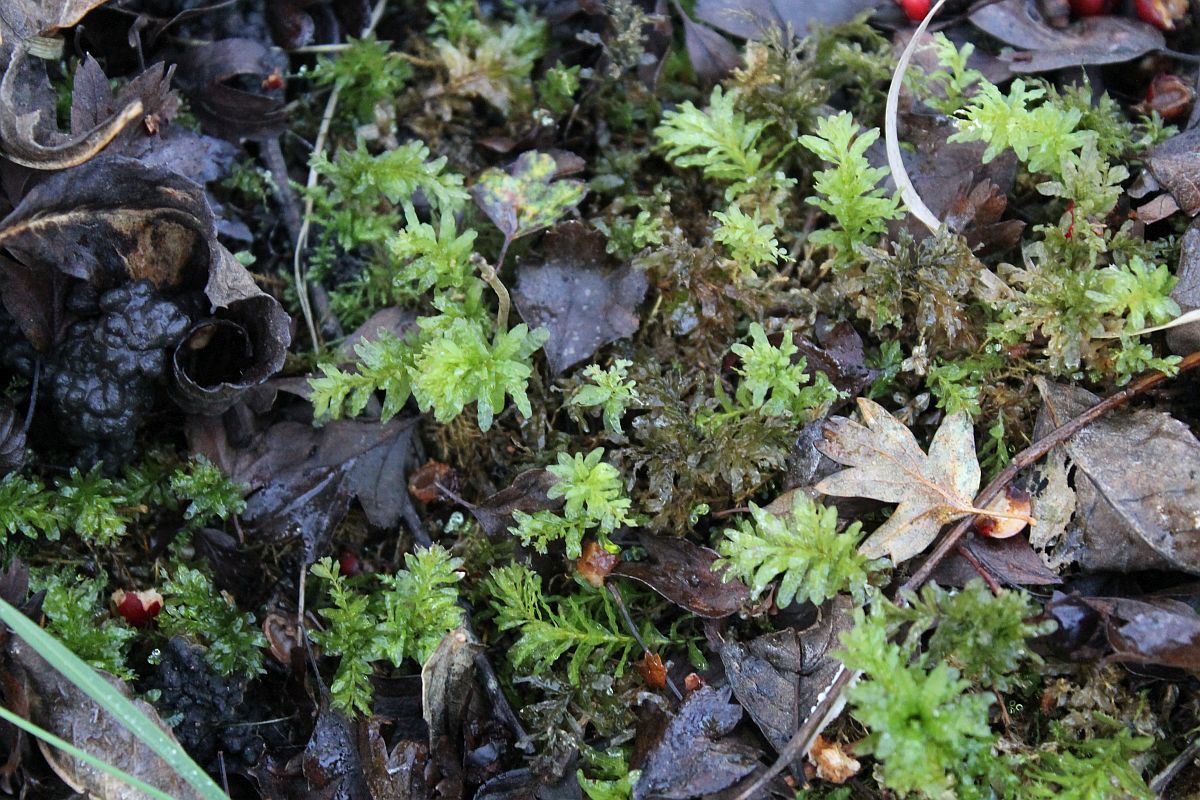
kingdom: Plantae
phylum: Bryophyta
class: Bryopsida
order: Bryales
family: Mniaceae
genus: Plagiomnium
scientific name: Plagiomnium undulatum
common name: Hart's-tongue thyme-moss
